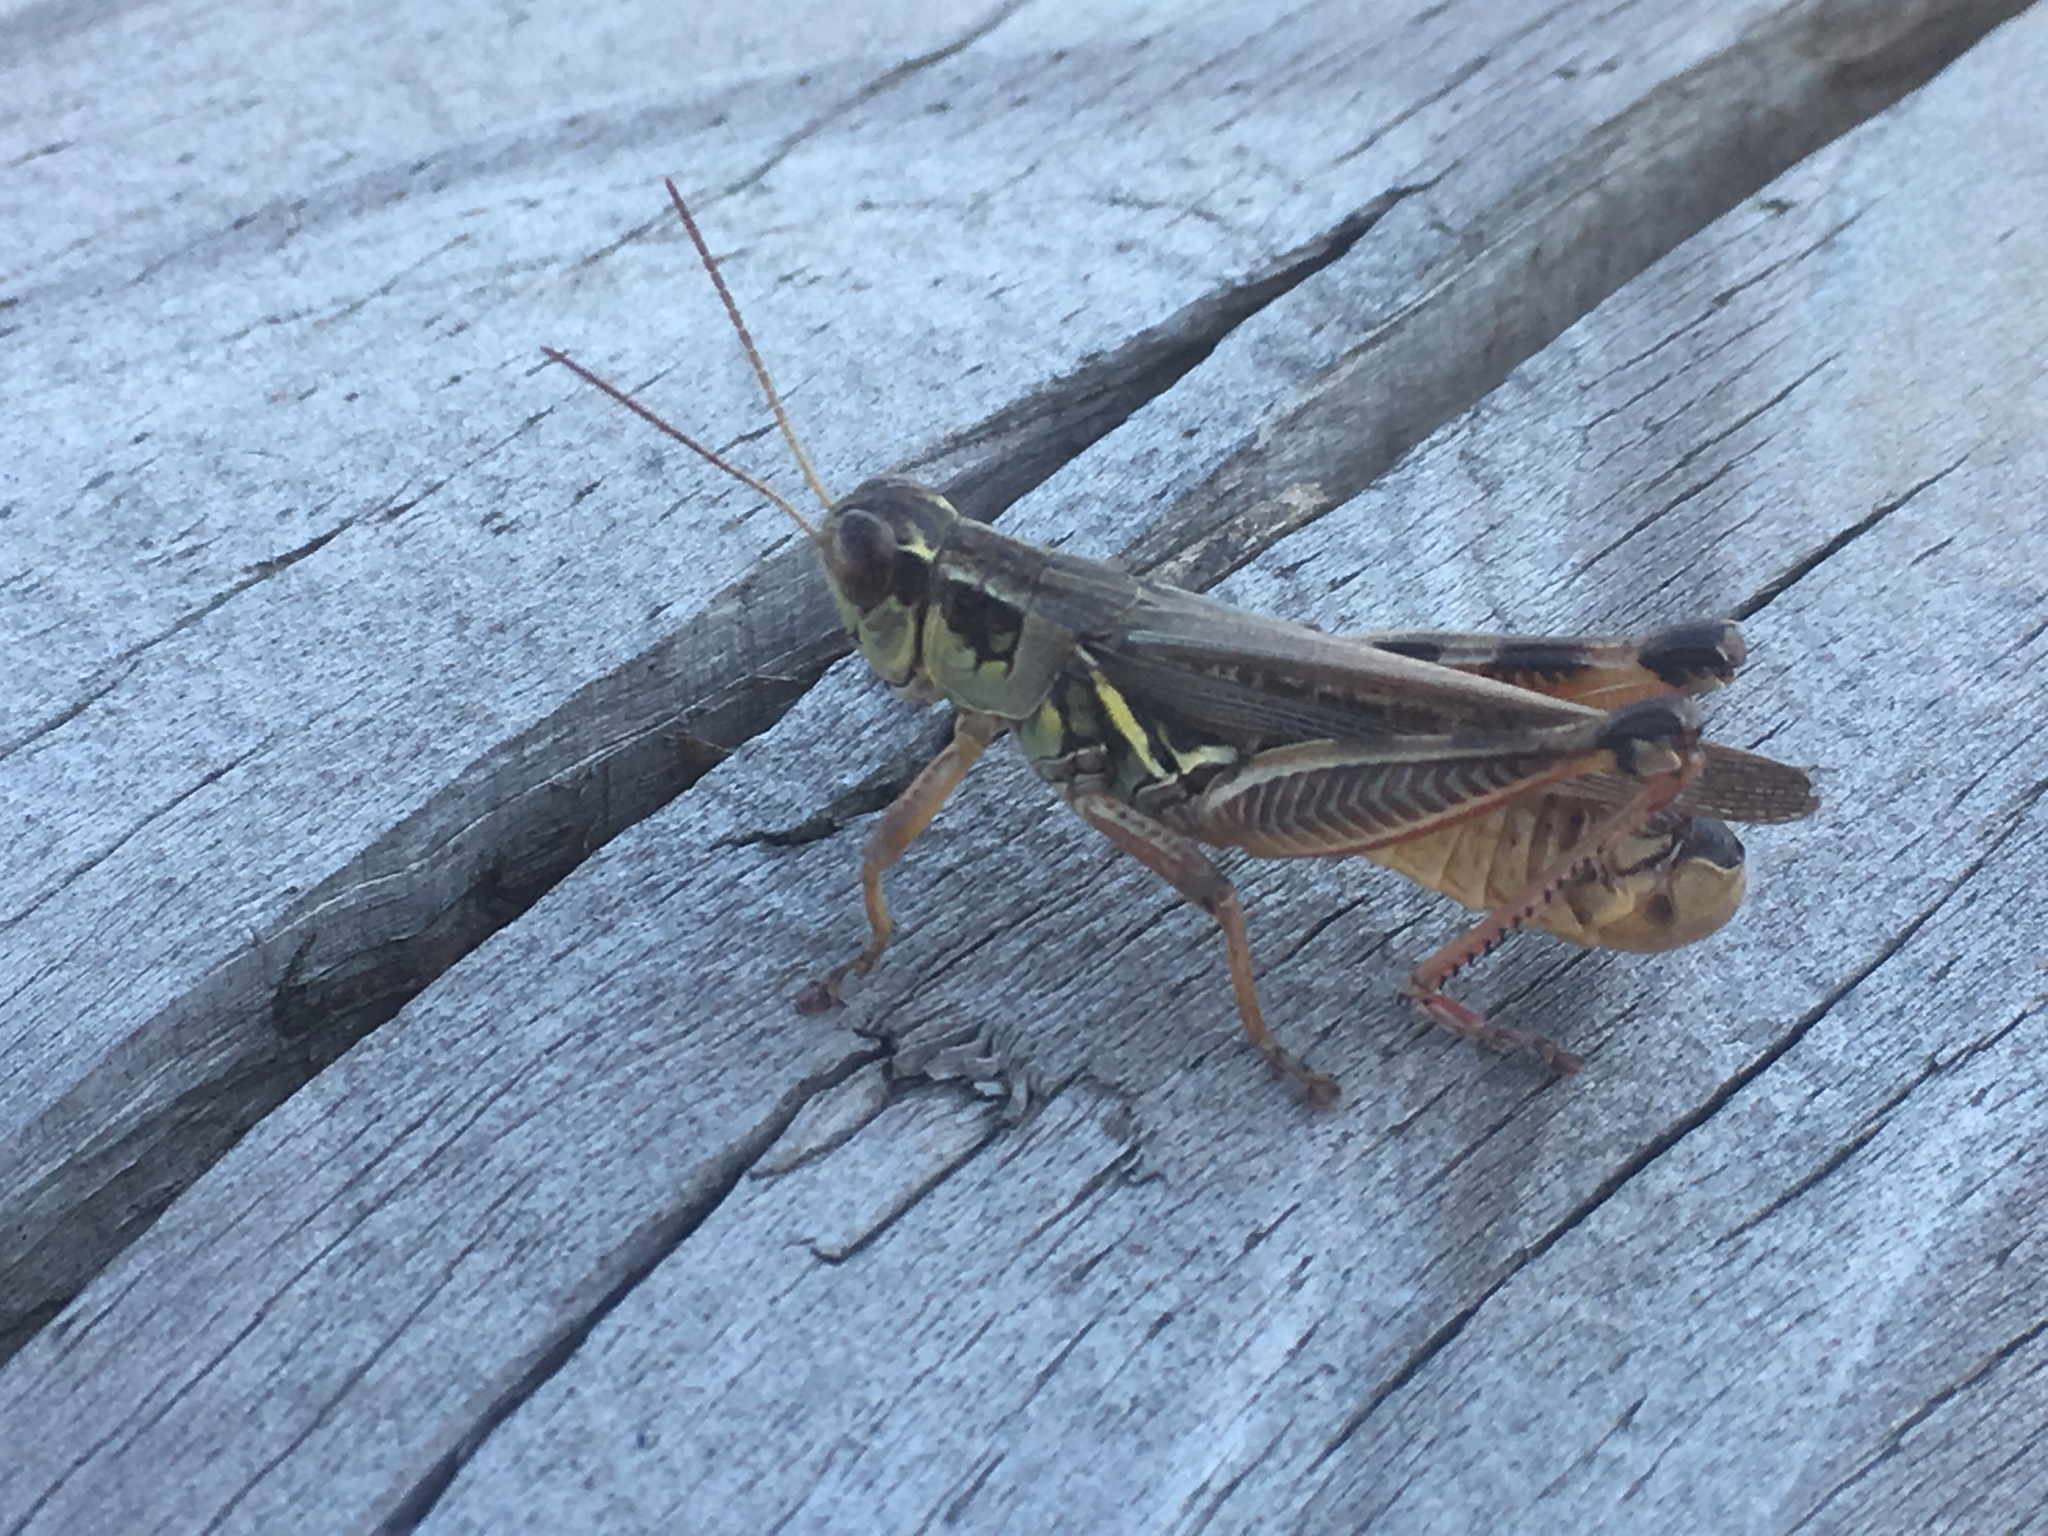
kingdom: Animalia
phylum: Arthropoda
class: Insecta
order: Orthoptera
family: Acrididae
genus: Melanoplus
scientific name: Melanoplus femurrubrum
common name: Red-legged grasshopper
